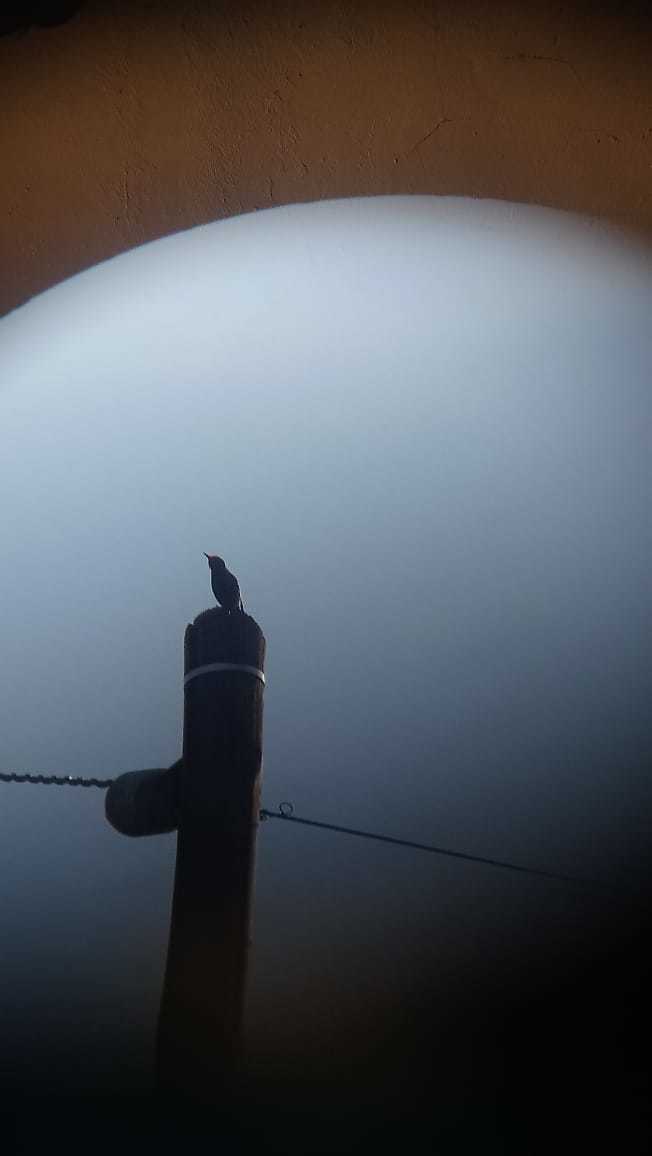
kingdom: Animalia
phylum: Chordata
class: Aves
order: Passeriformes
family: Sturnidae
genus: Sturnus
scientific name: Sturnus vulgaris
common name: Common starling
